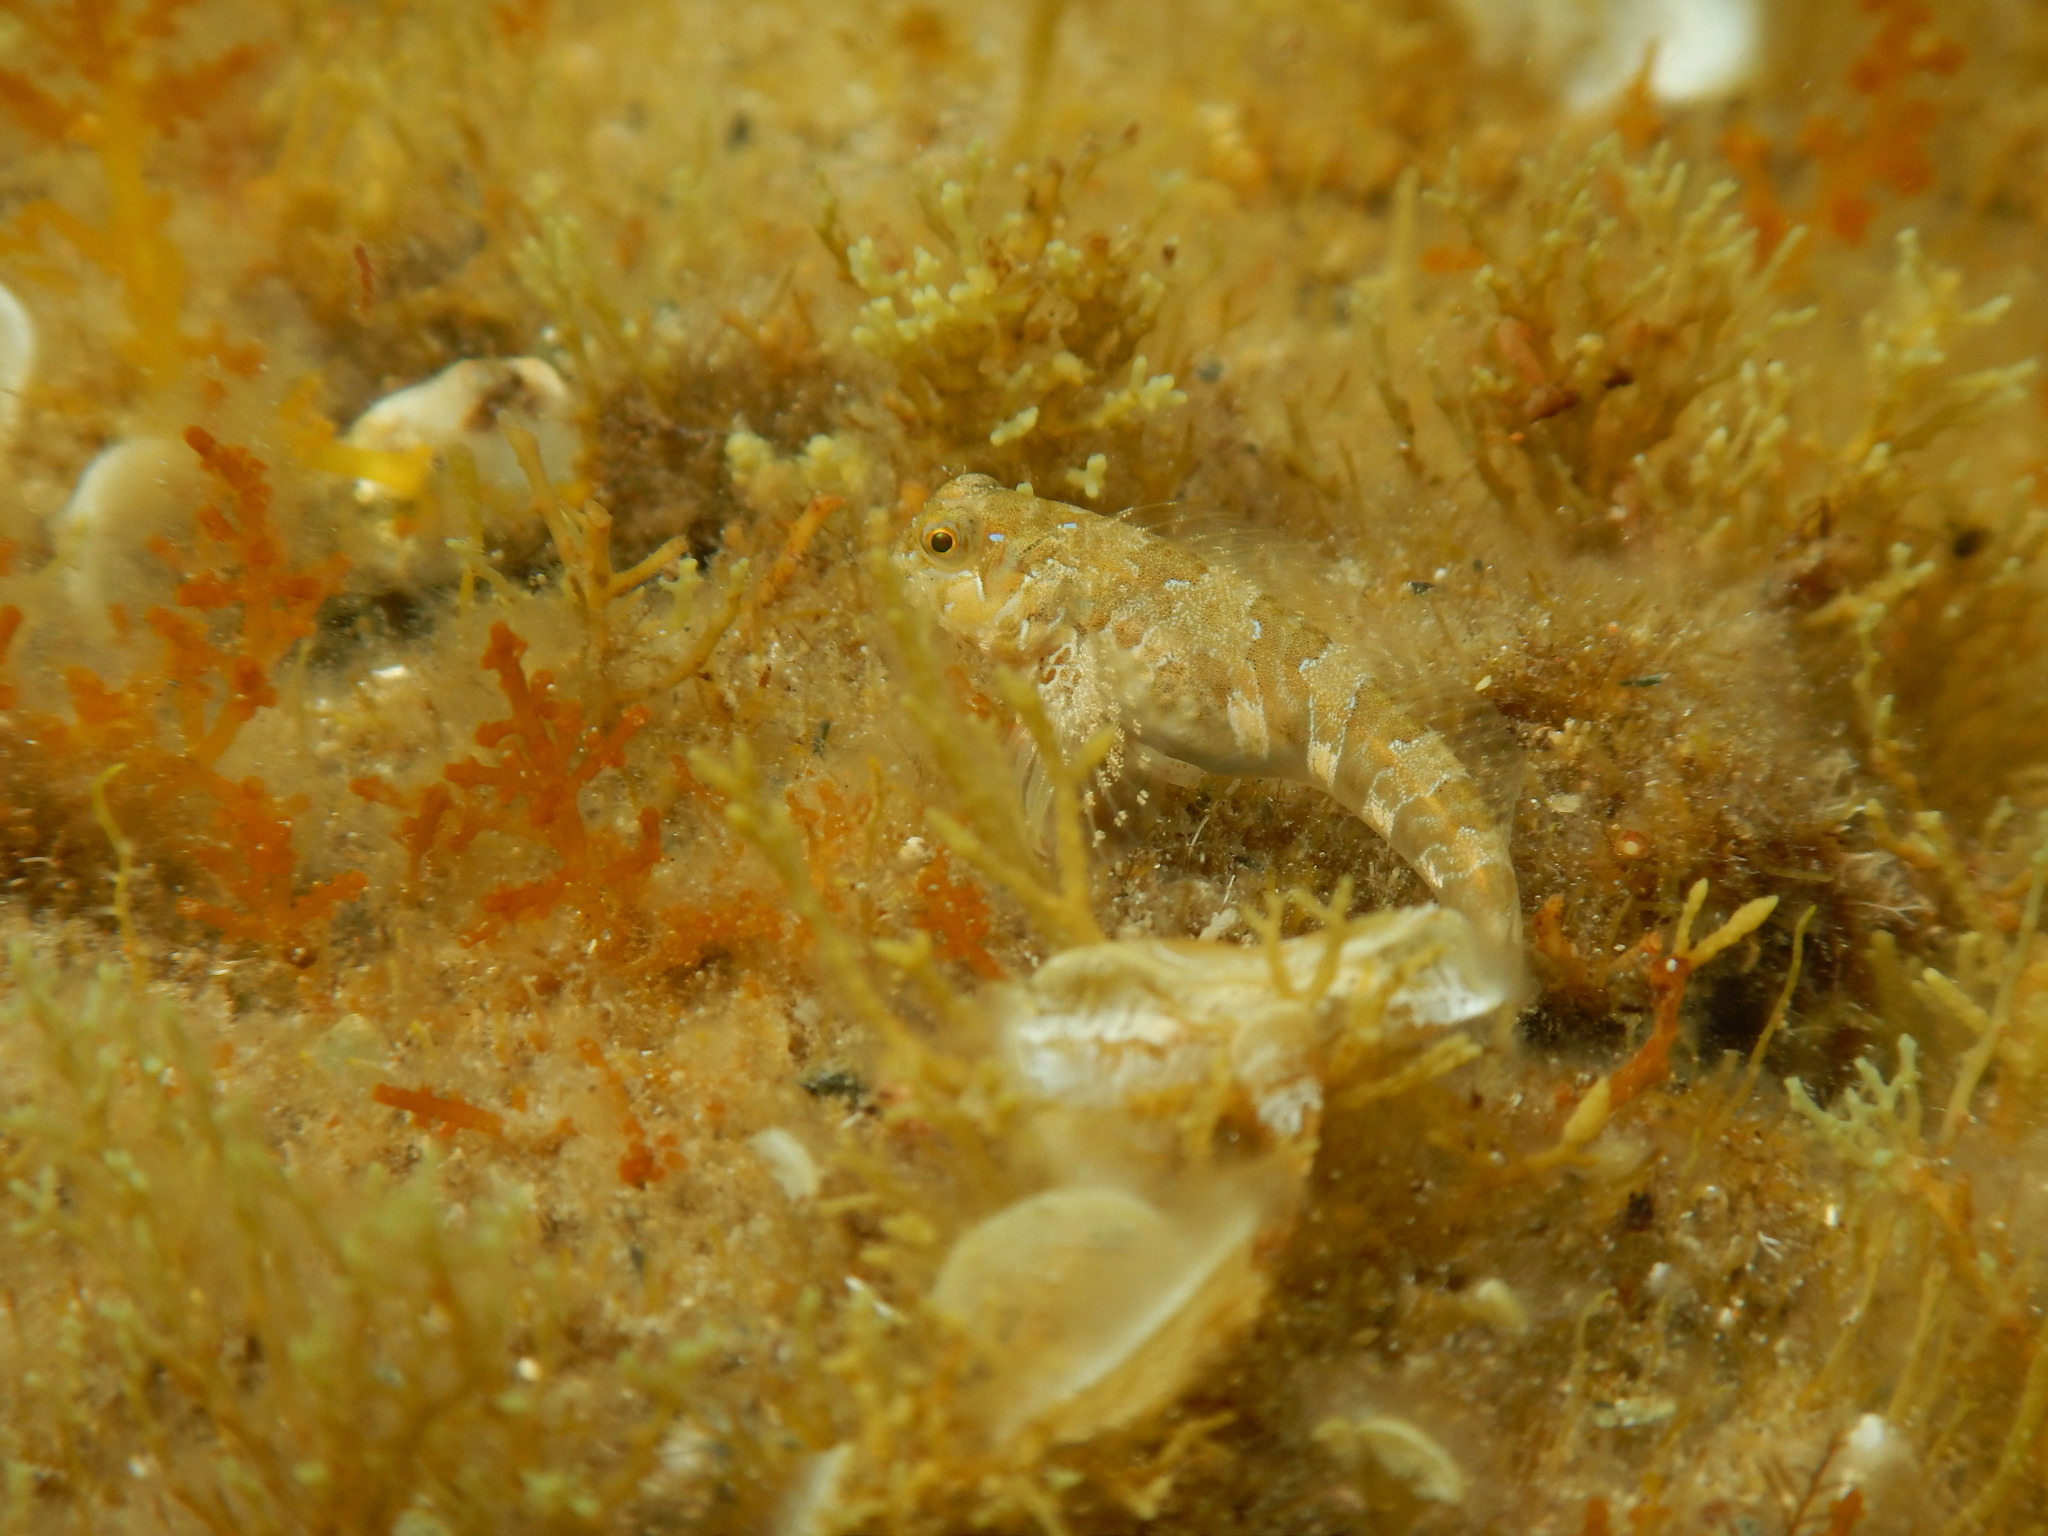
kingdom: Animalia
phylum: Chordata
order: Perciformes
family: Blenniidae
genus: Aidablennius
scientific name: Aidablennius sphynx
